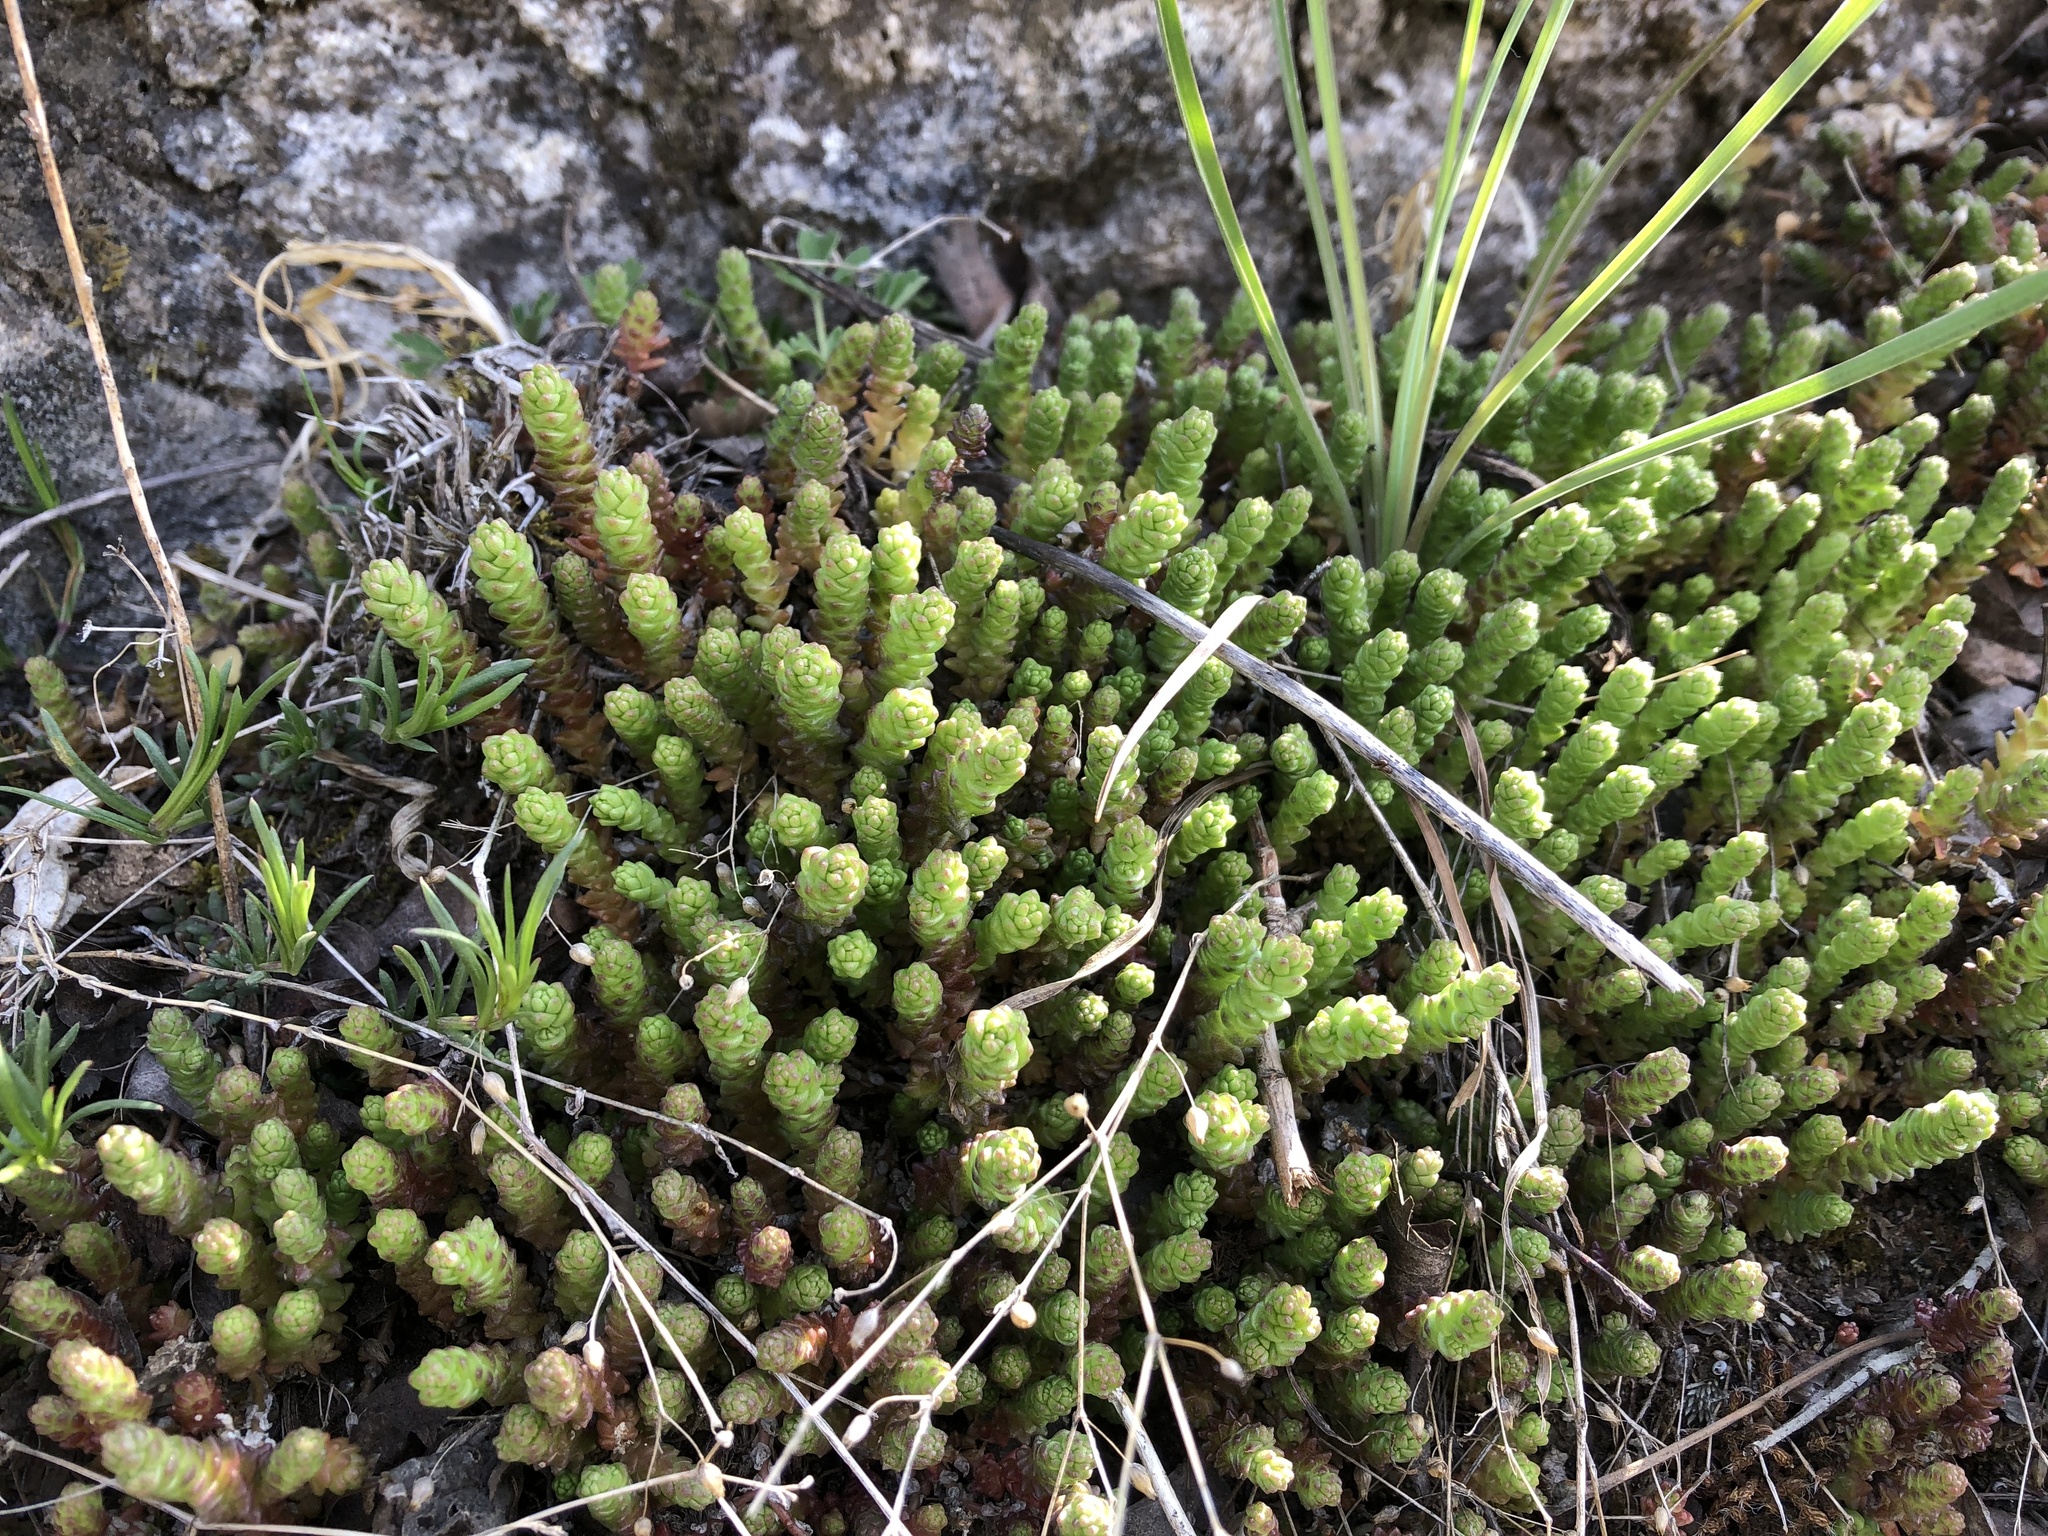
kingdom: Plantae
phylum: Tracheophyta
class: Magnoliopsida
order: Saxifragales
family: Crassulaceae
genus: Sedum
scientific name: Sedum acre
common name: Biting stonecrop
